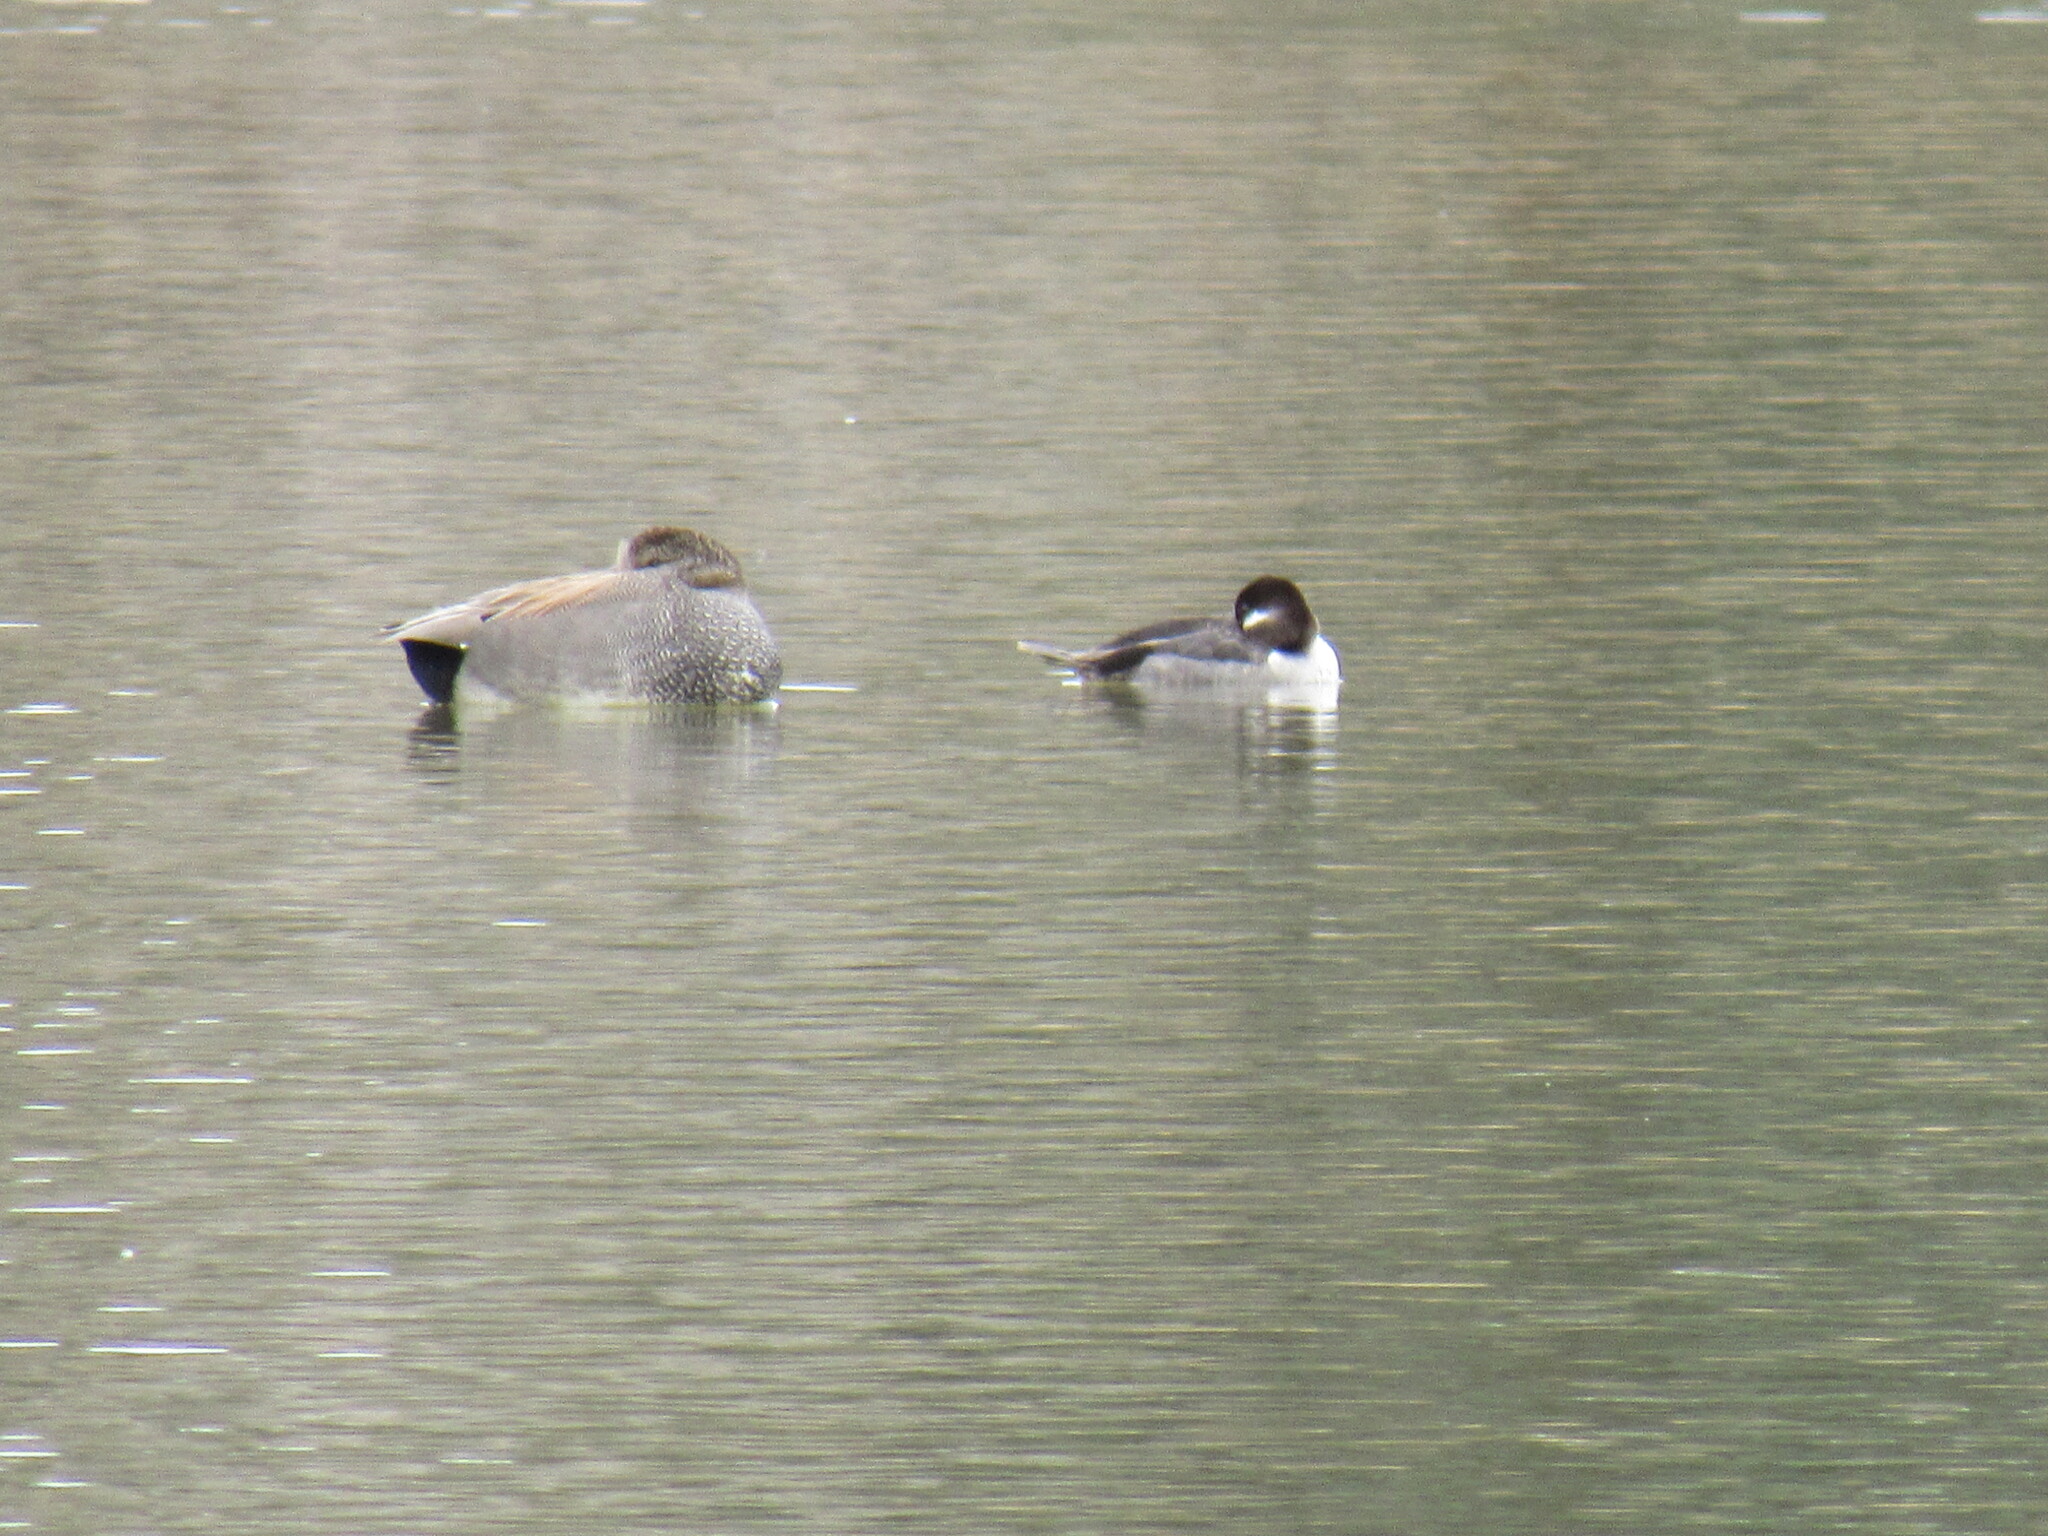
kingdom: Animalia
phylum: Chordata
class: Aves
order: Anseriformes
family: Anatidae
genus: Mareca
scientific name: Mareca strepera
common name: Gadwall
